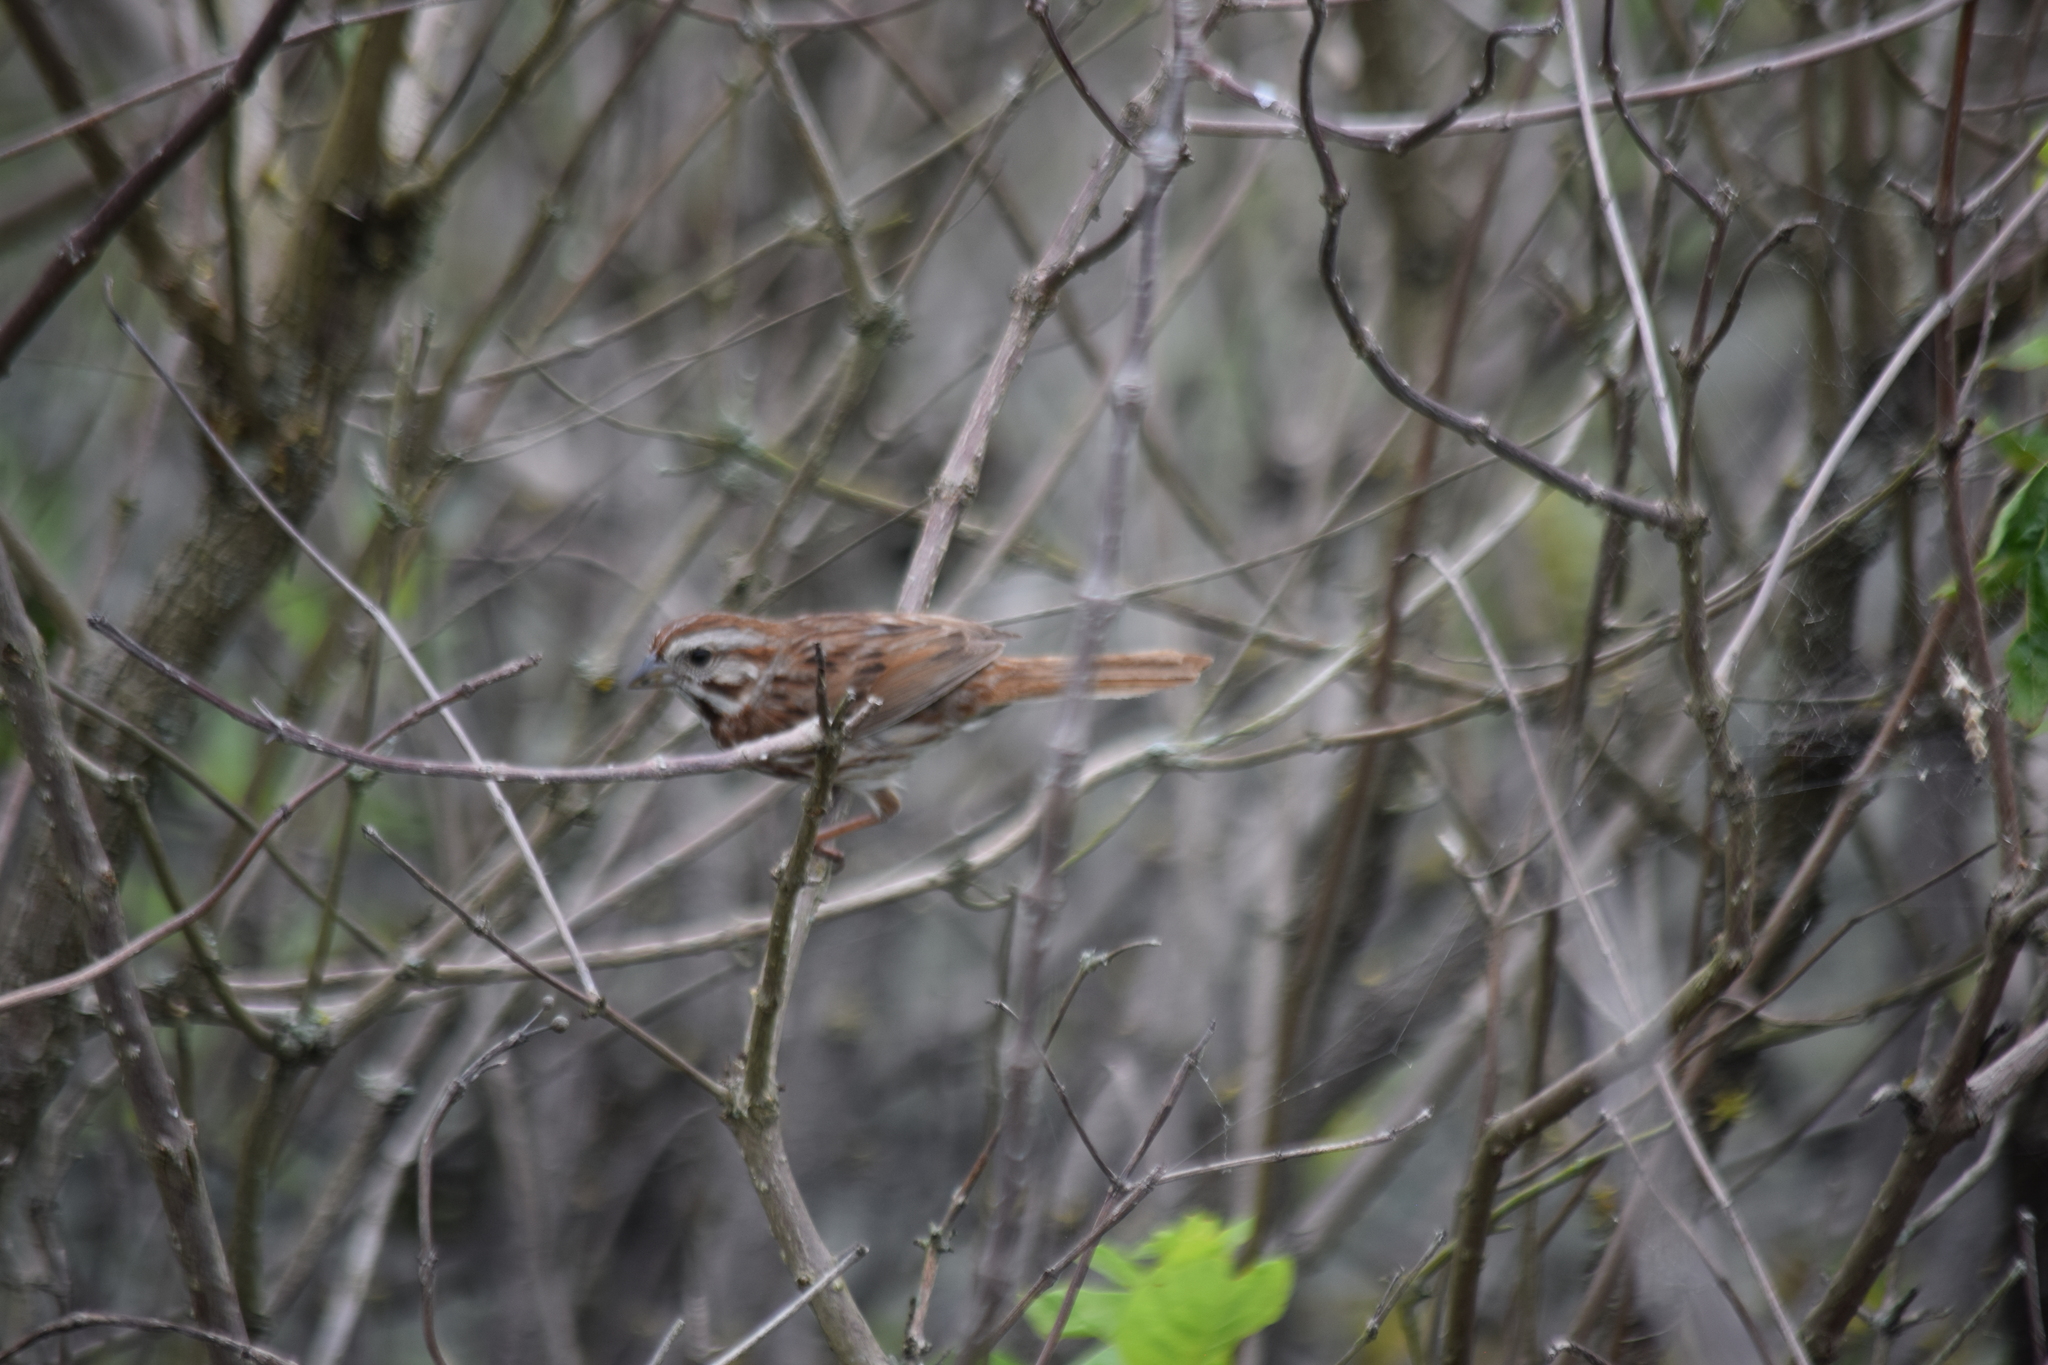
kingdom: Animalia
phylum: Chordata
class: Aves
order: Passeriformes
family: Passerellidae
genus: Melospiza
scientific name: Melospiza melodia
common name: Song sparrow
